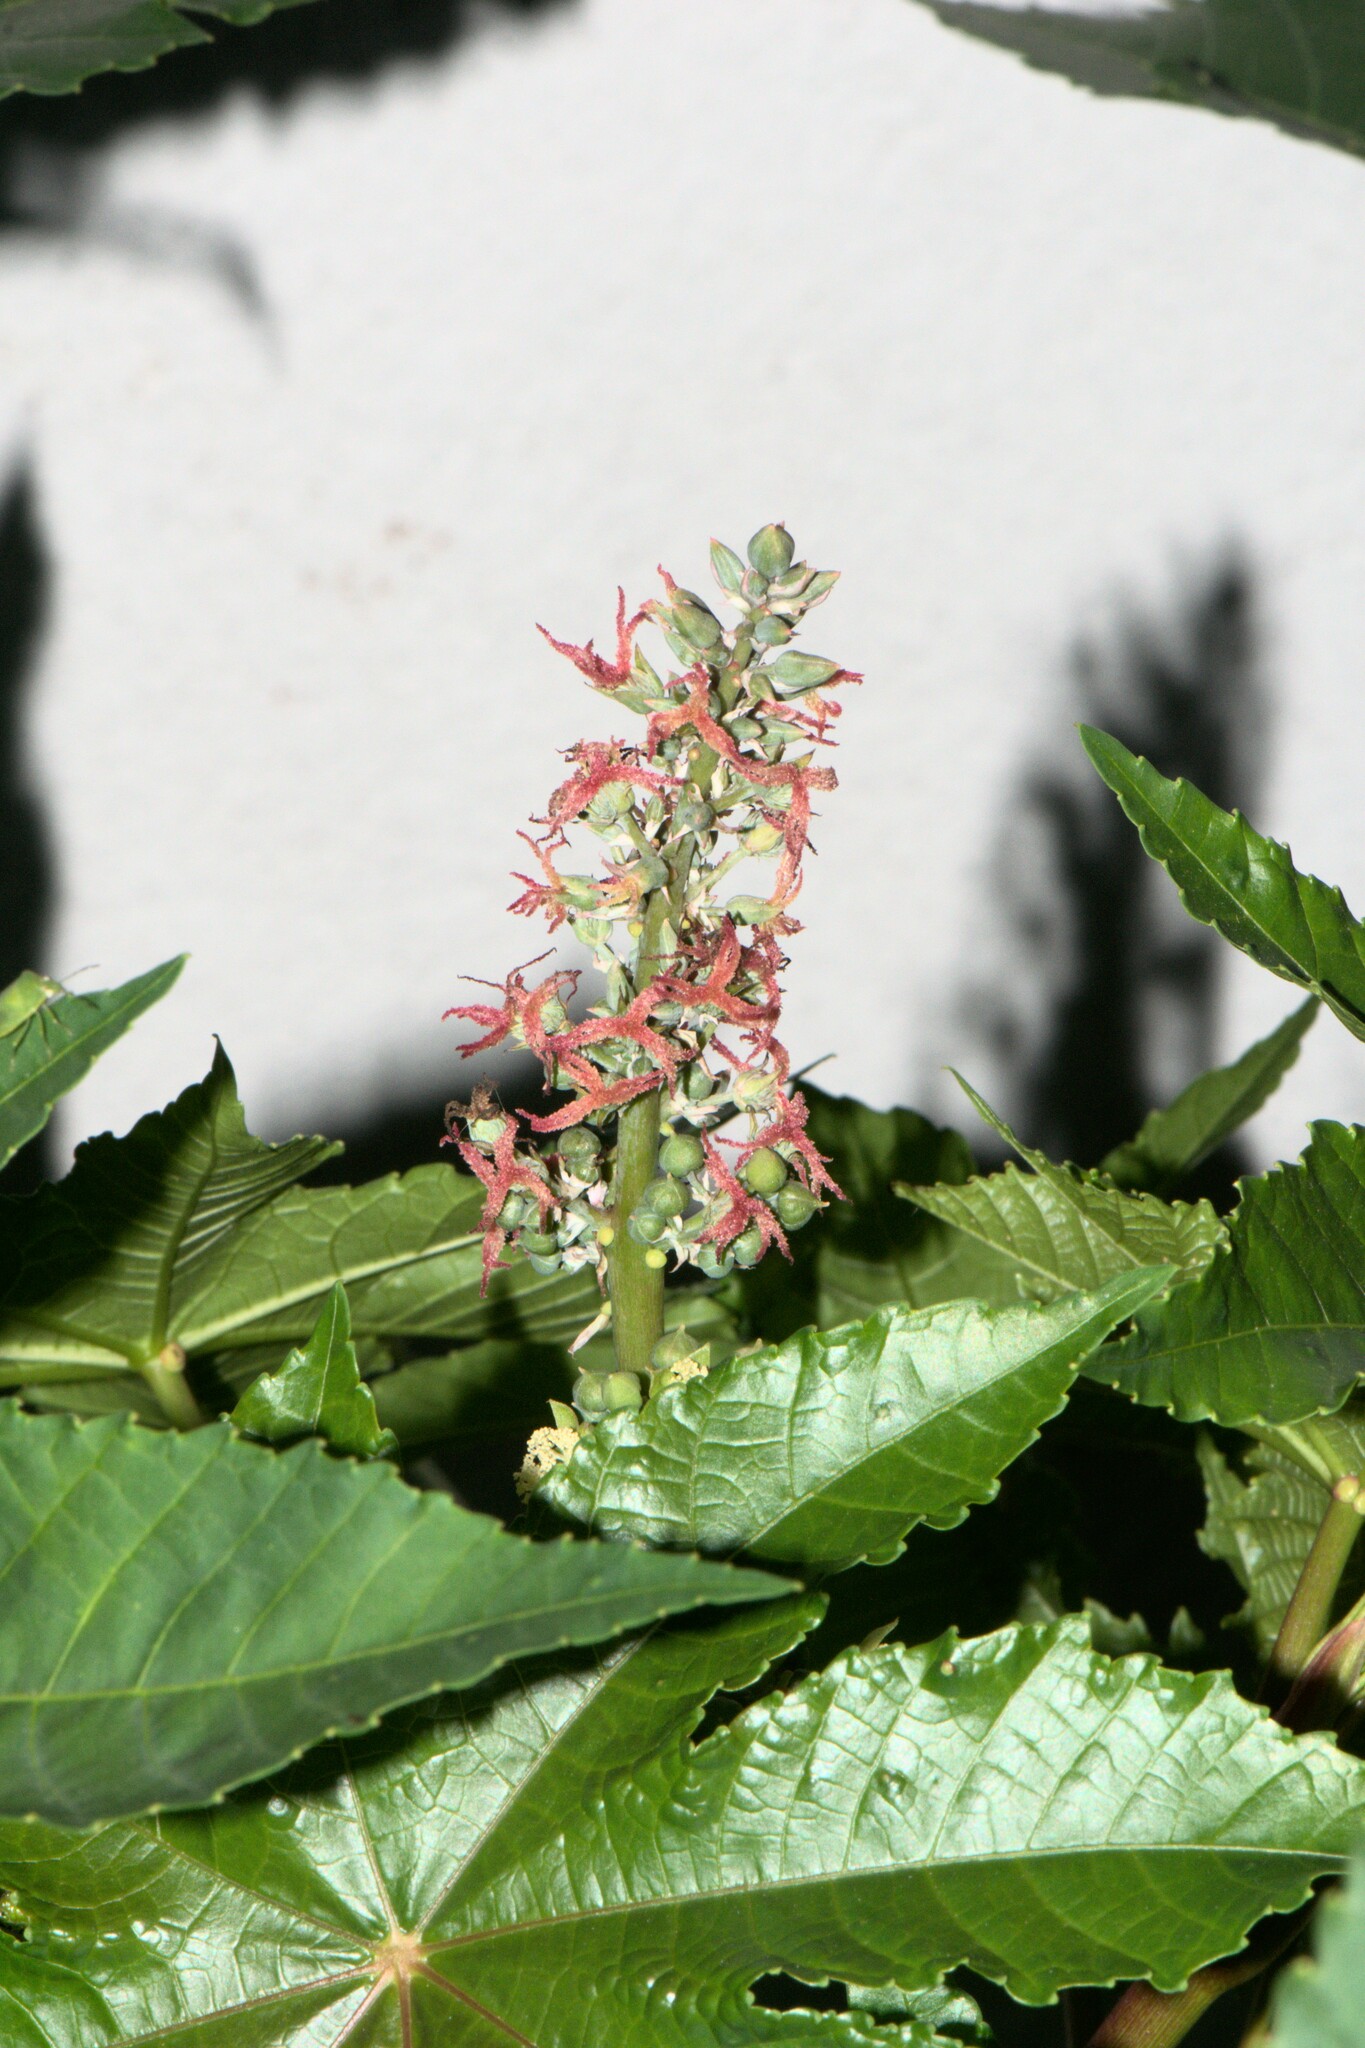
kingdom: Plantae
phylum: Tracheophyta
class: Magnoliopsida
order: Malpighiales
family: Euphorbiaceae
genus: Ricinus
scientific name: Ricinus communis
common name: Castor-oil-plant
